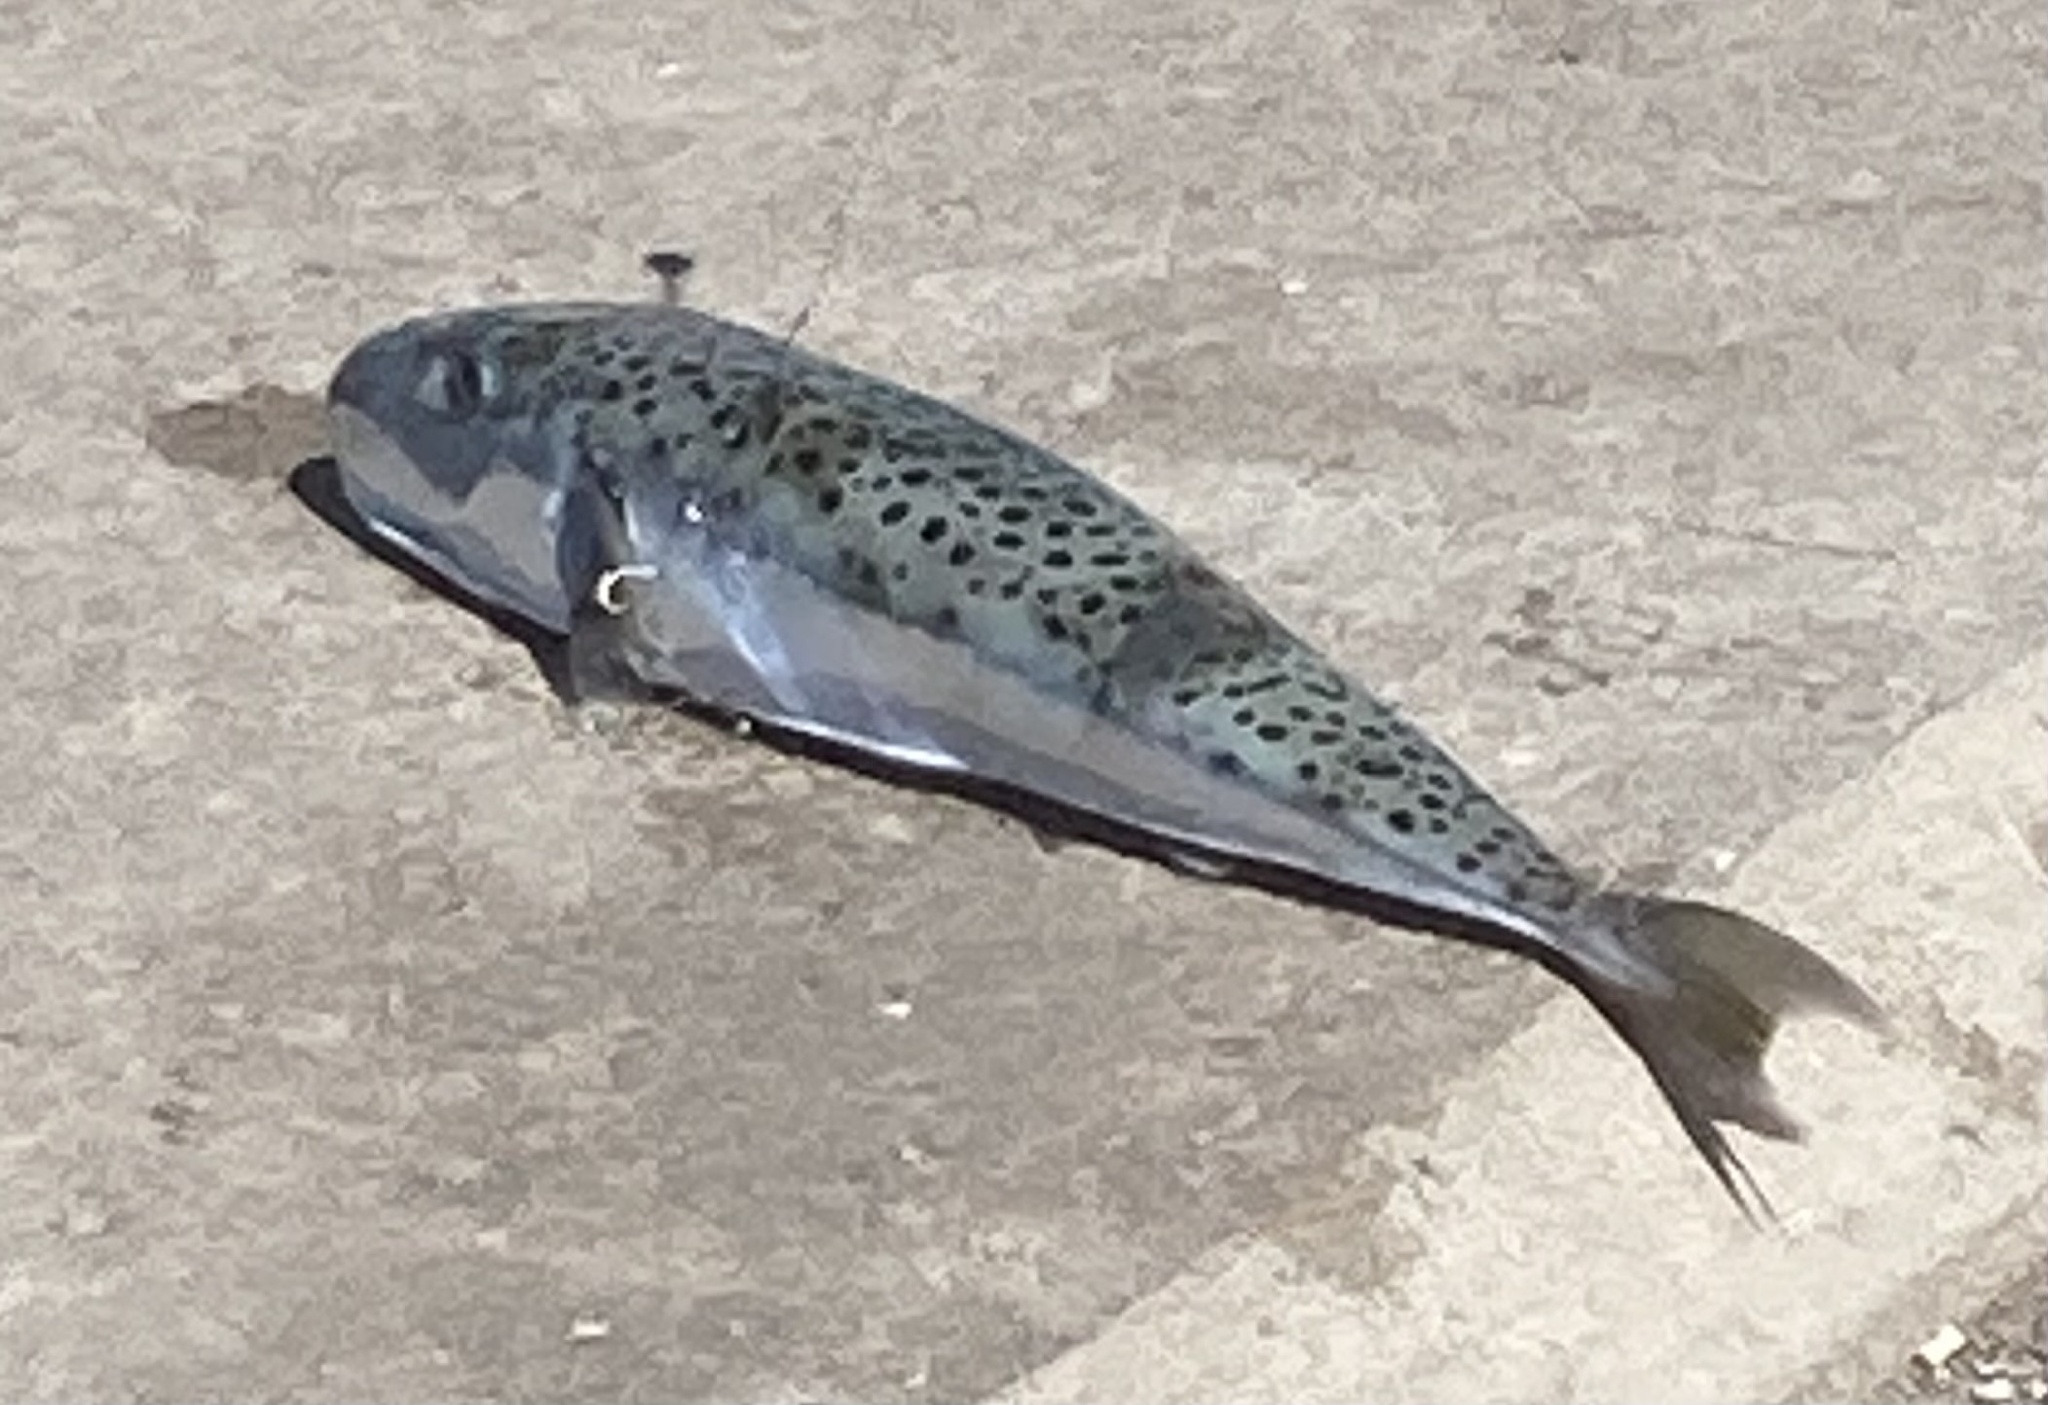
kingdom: Animalia
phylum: Chordata
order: Tetraodontiformes
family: Tetraodontidae
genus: Lagocephalus
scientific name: Lagocephalus sceleratus
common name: Silverstripe blaasop
